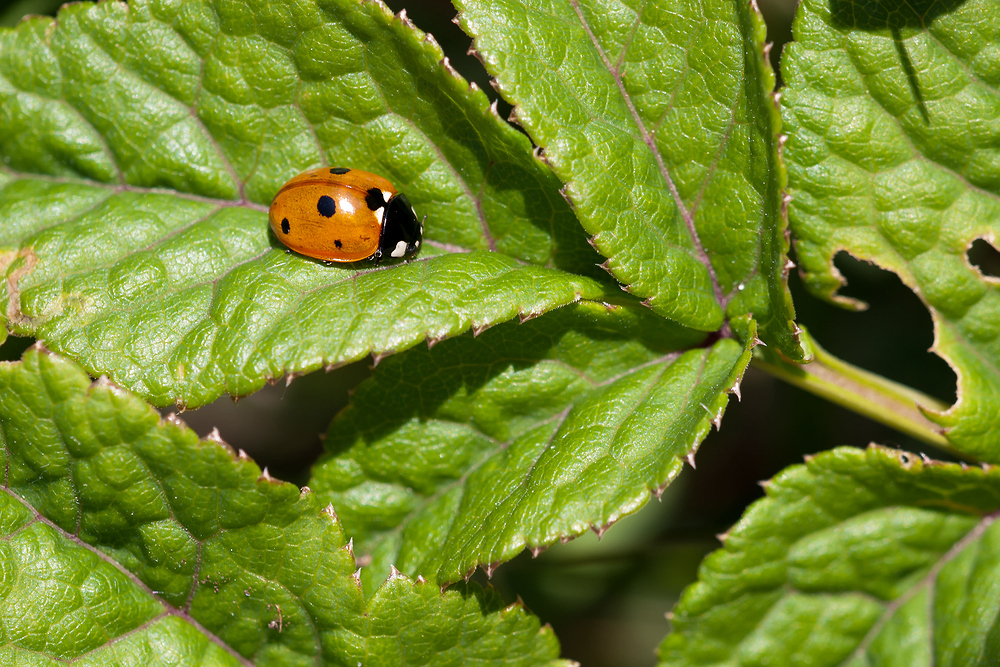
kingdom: Animalia
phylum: Arthropoda
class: Insecta
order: Coleoptera
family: Coccinellidae
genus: Coccinella
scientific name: Coccinella septempunctata
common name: Sevenspotted lady beetle
